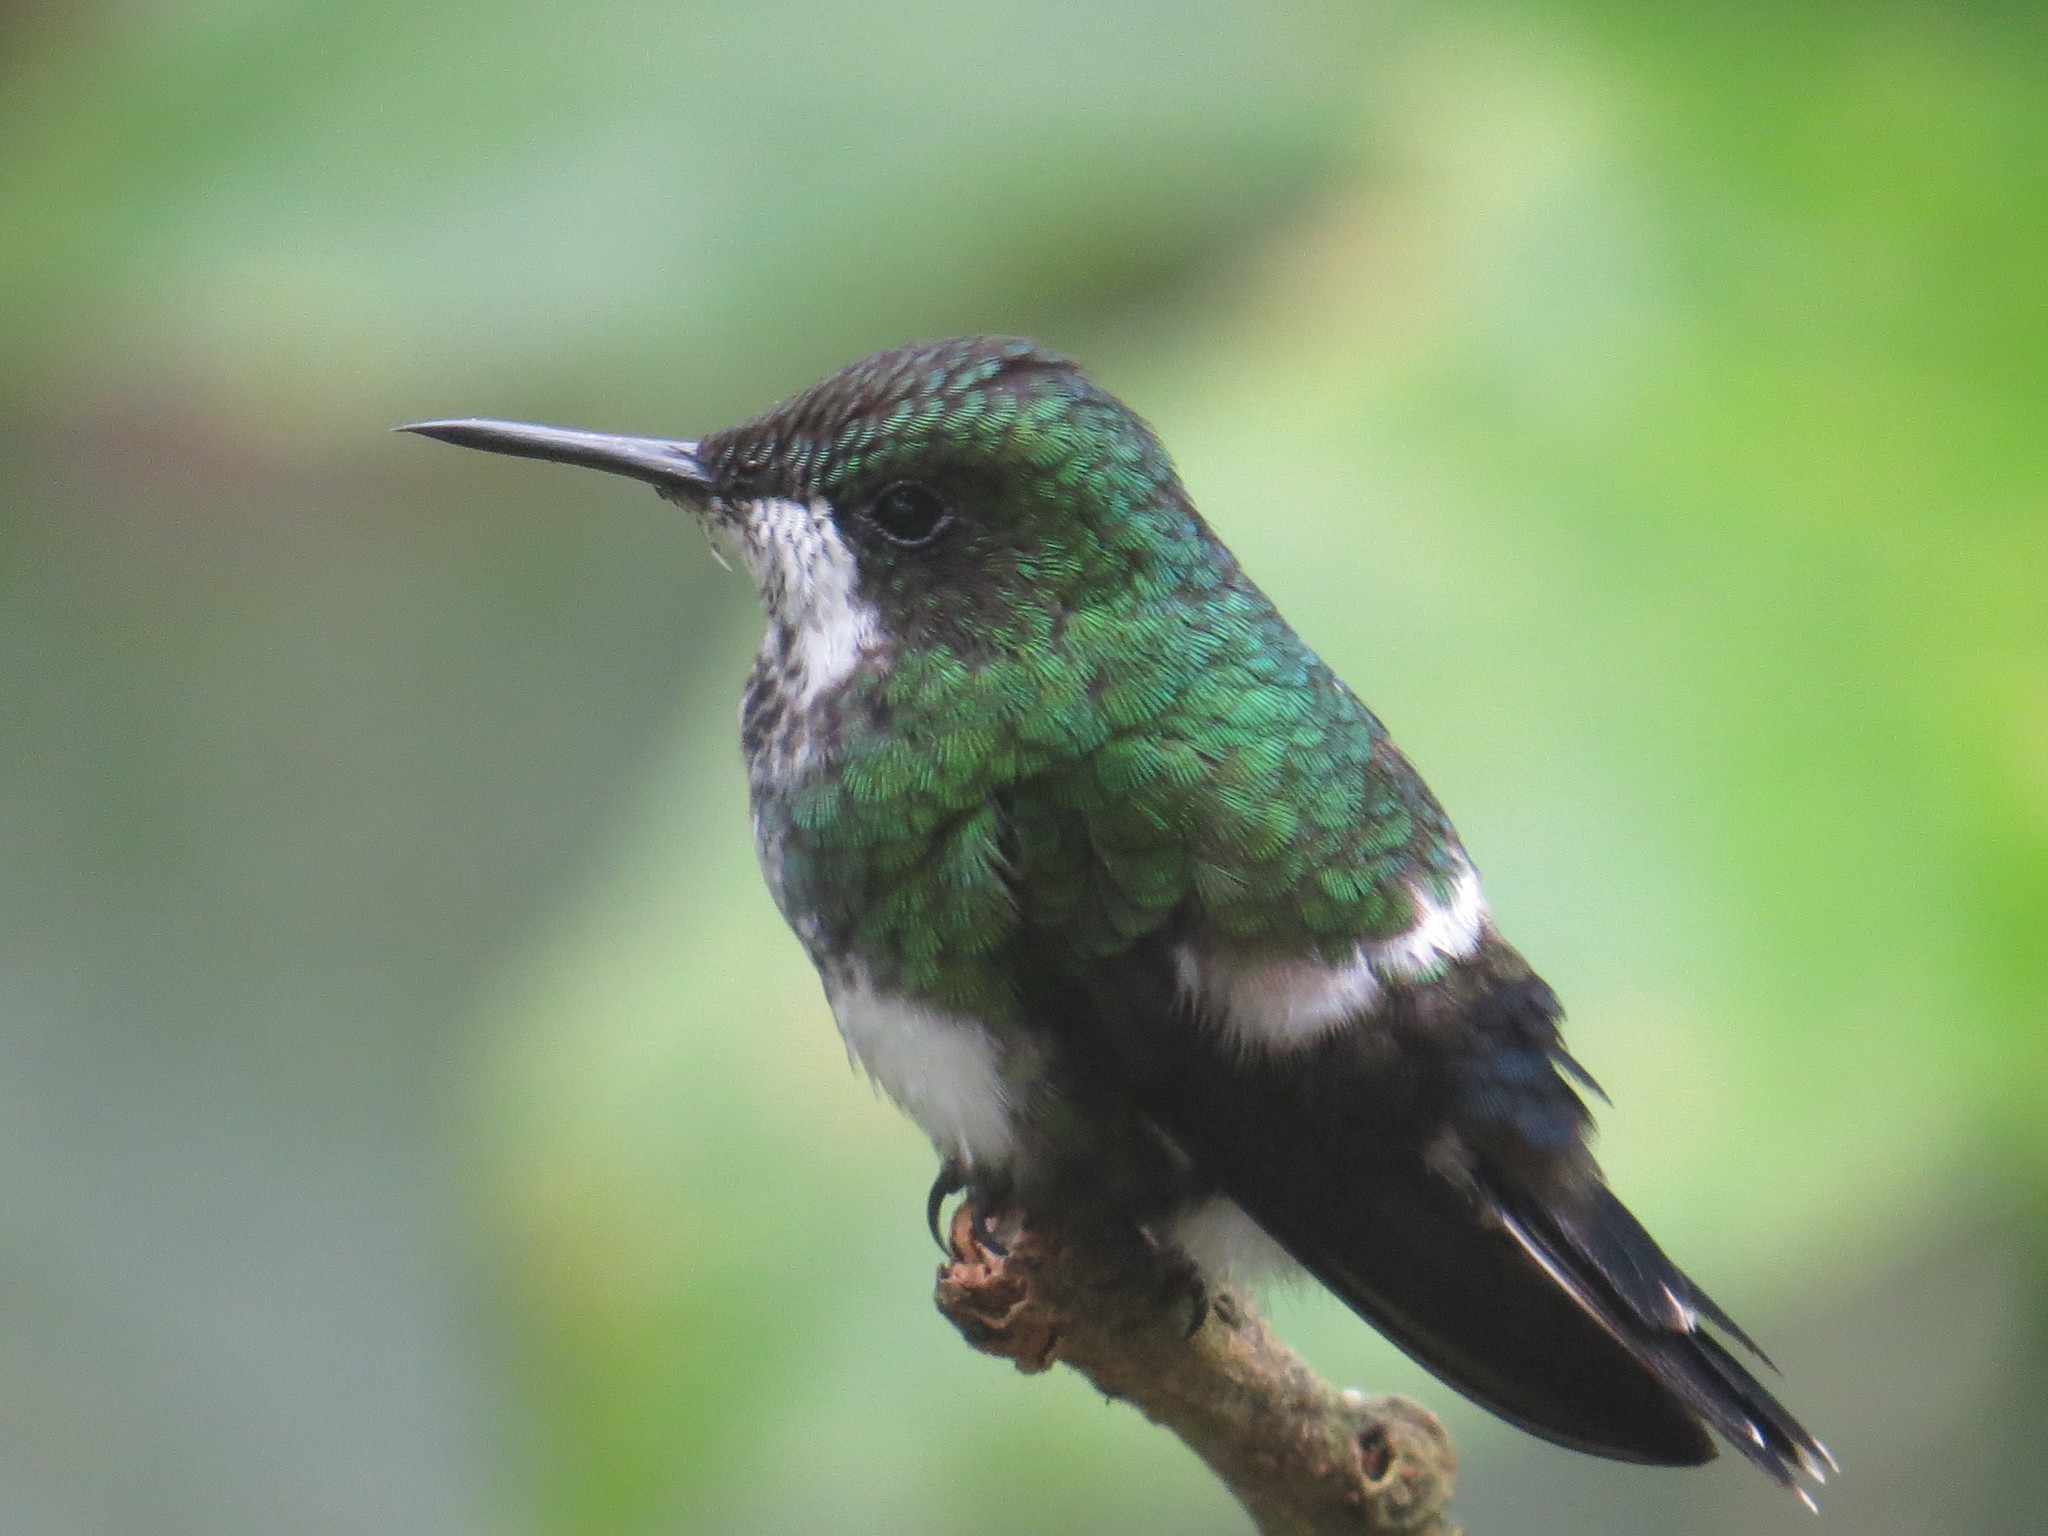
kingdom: Animalia
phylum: Chordata
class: Aves
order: Apodiformes
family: Trochilidae
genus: Discosura
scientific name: Discosura conversii
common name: Green thorntail
